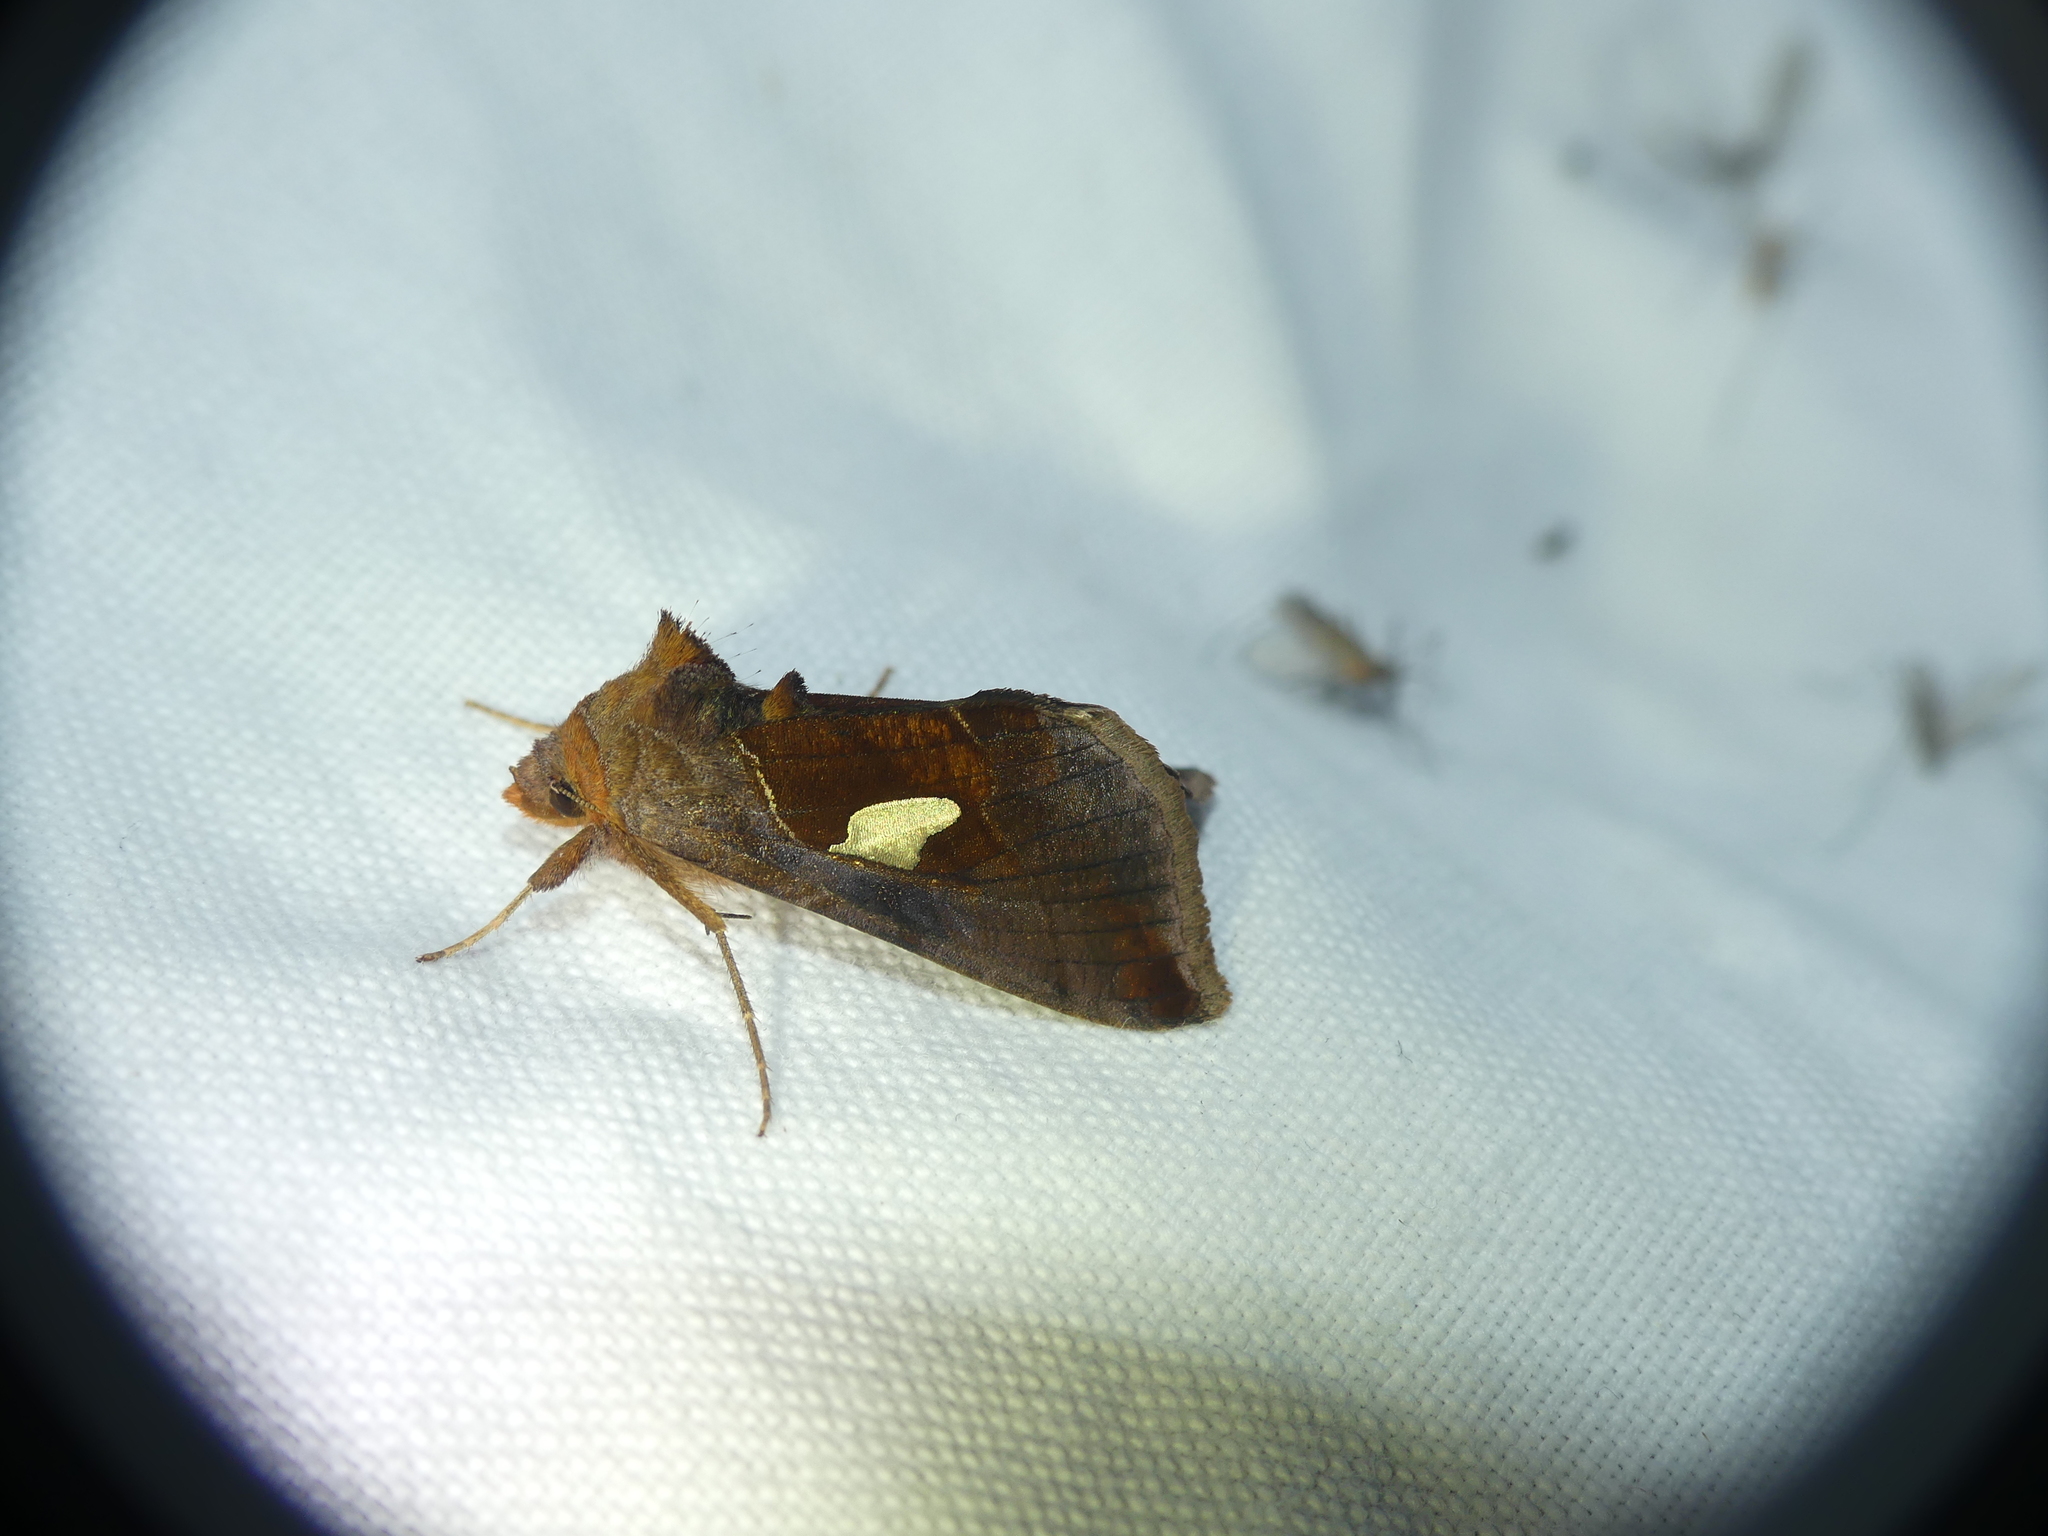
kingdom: Animalia
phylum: Arthropoda
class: Insecta
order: Lepidoptera
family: Noctuidae
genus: Autographa
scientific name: Autographa bractea
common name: Gold spangle
